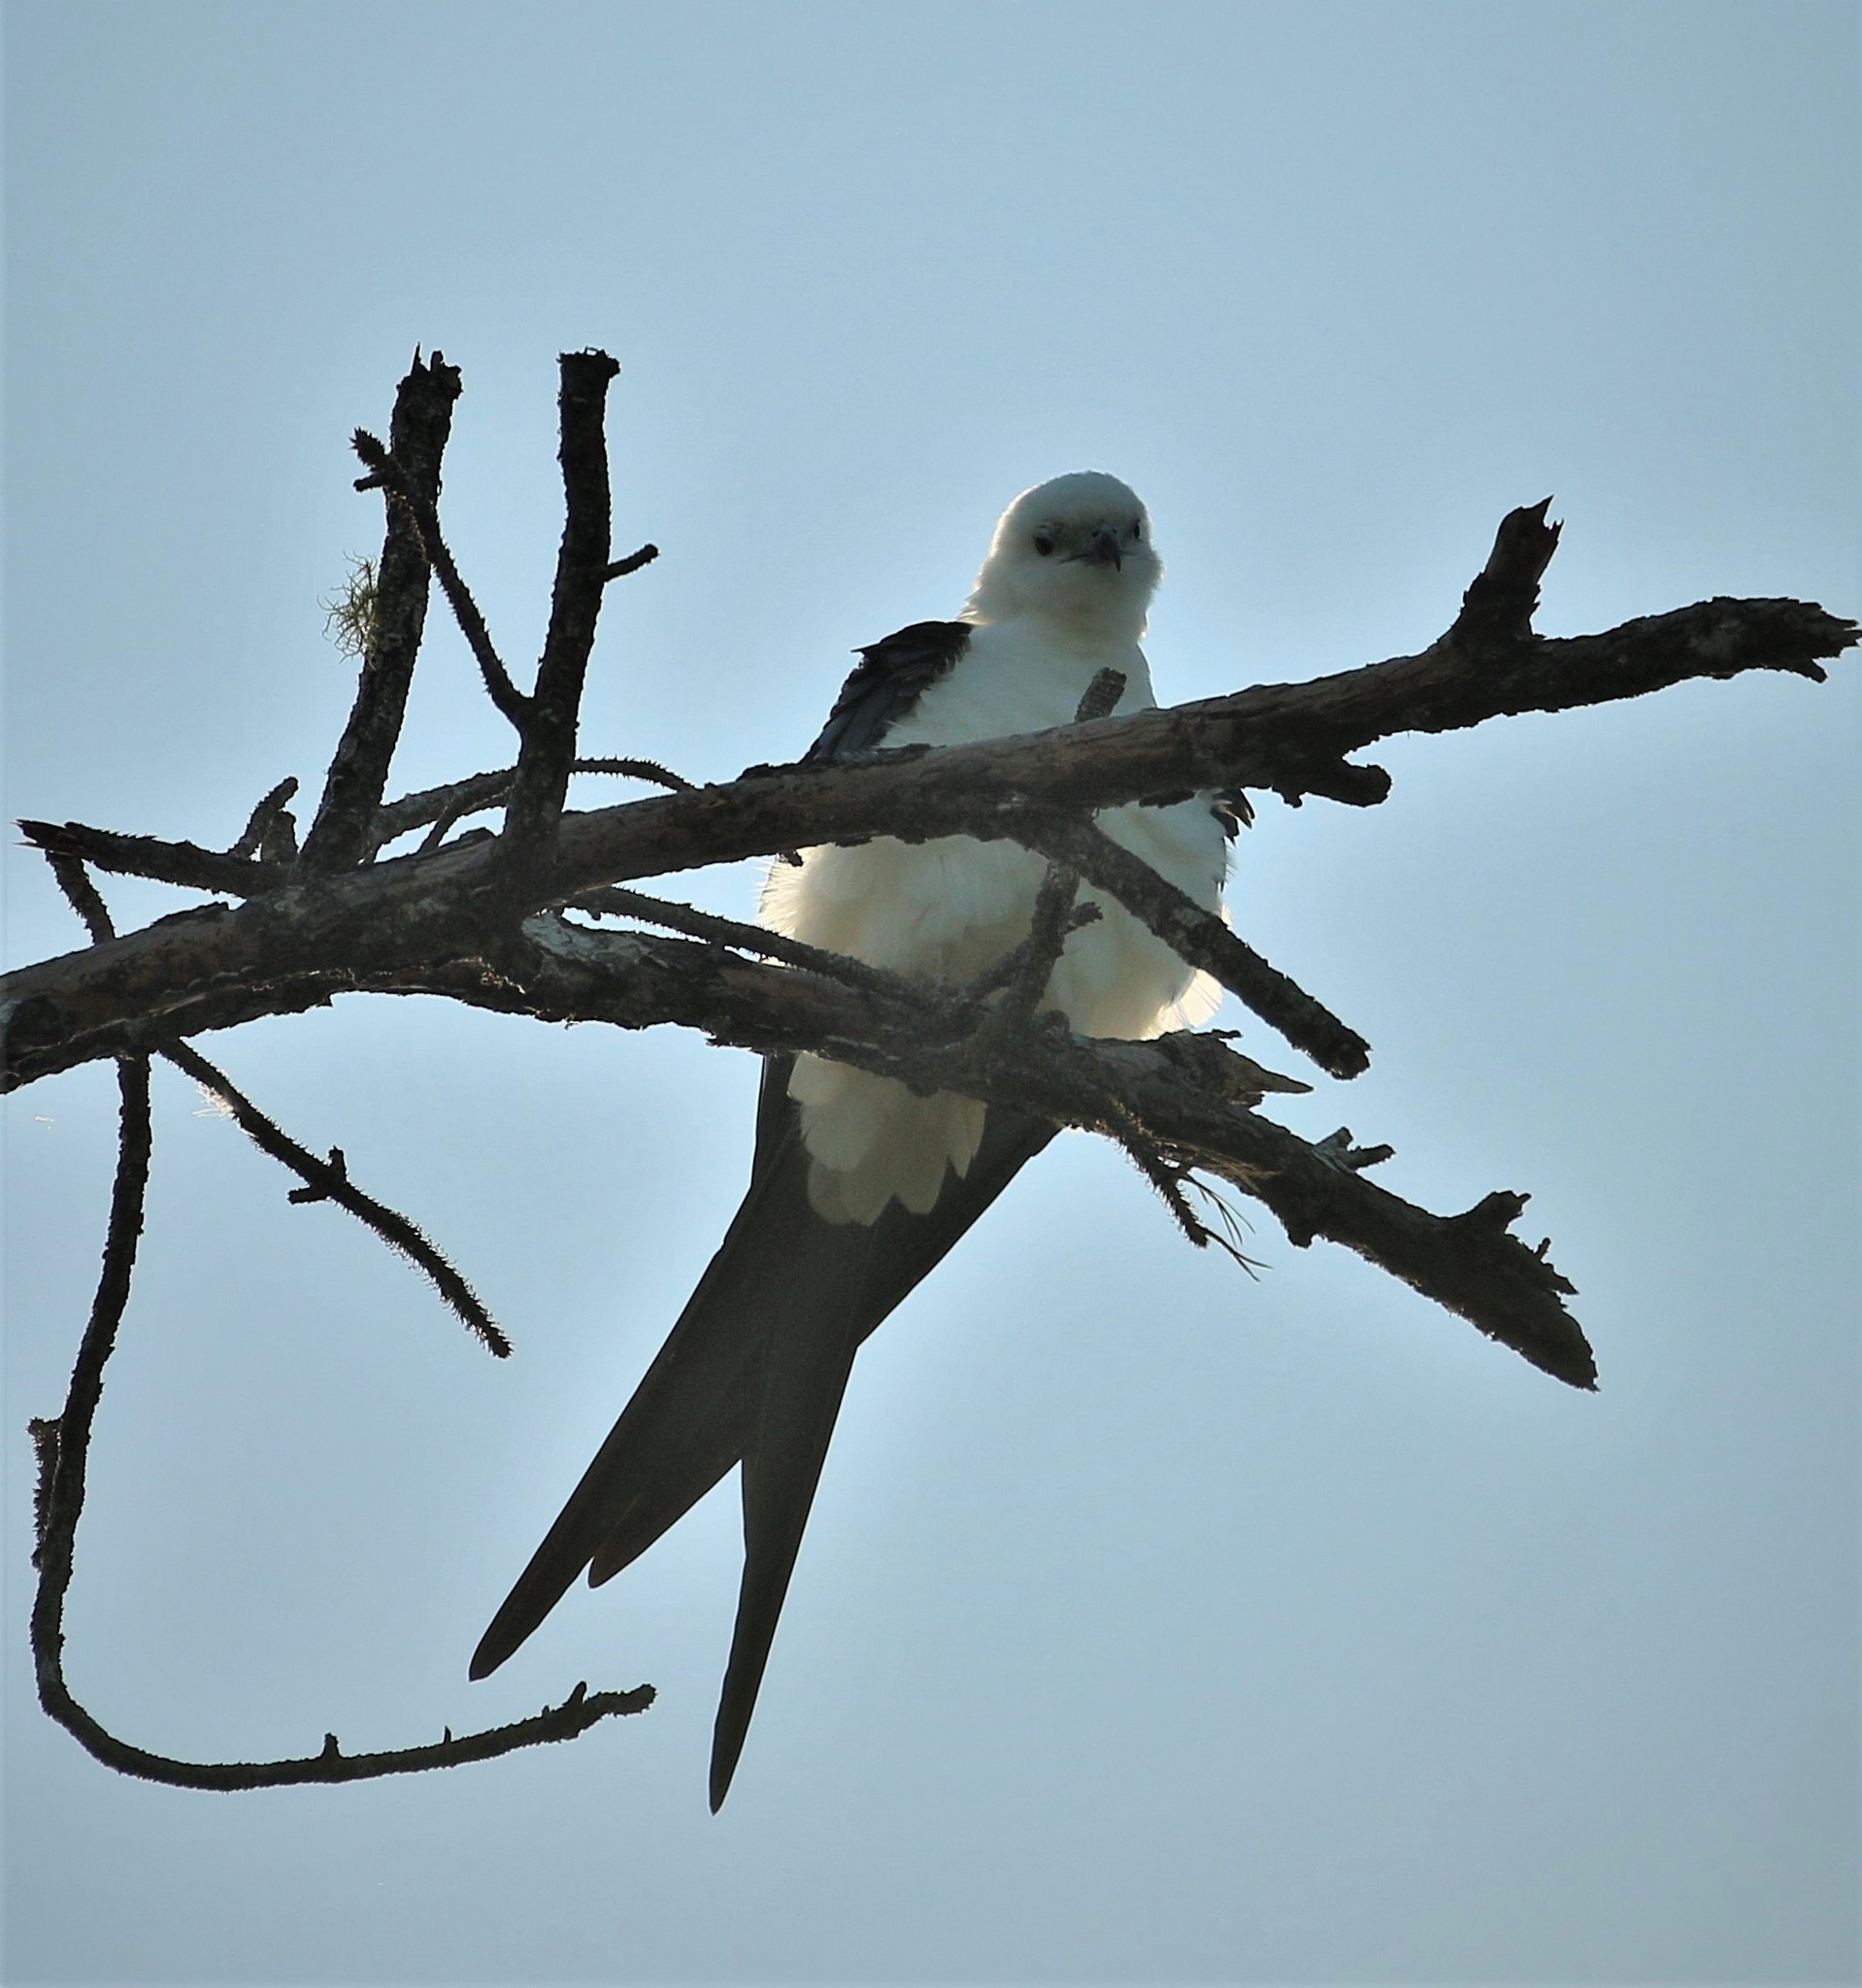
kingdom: Animalia
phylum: Chordata
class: Aves
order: Accipitriformes
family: Accipitridae
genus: Elanoides
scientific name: Elanoides forficatus
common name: Swallow-tailed kite
